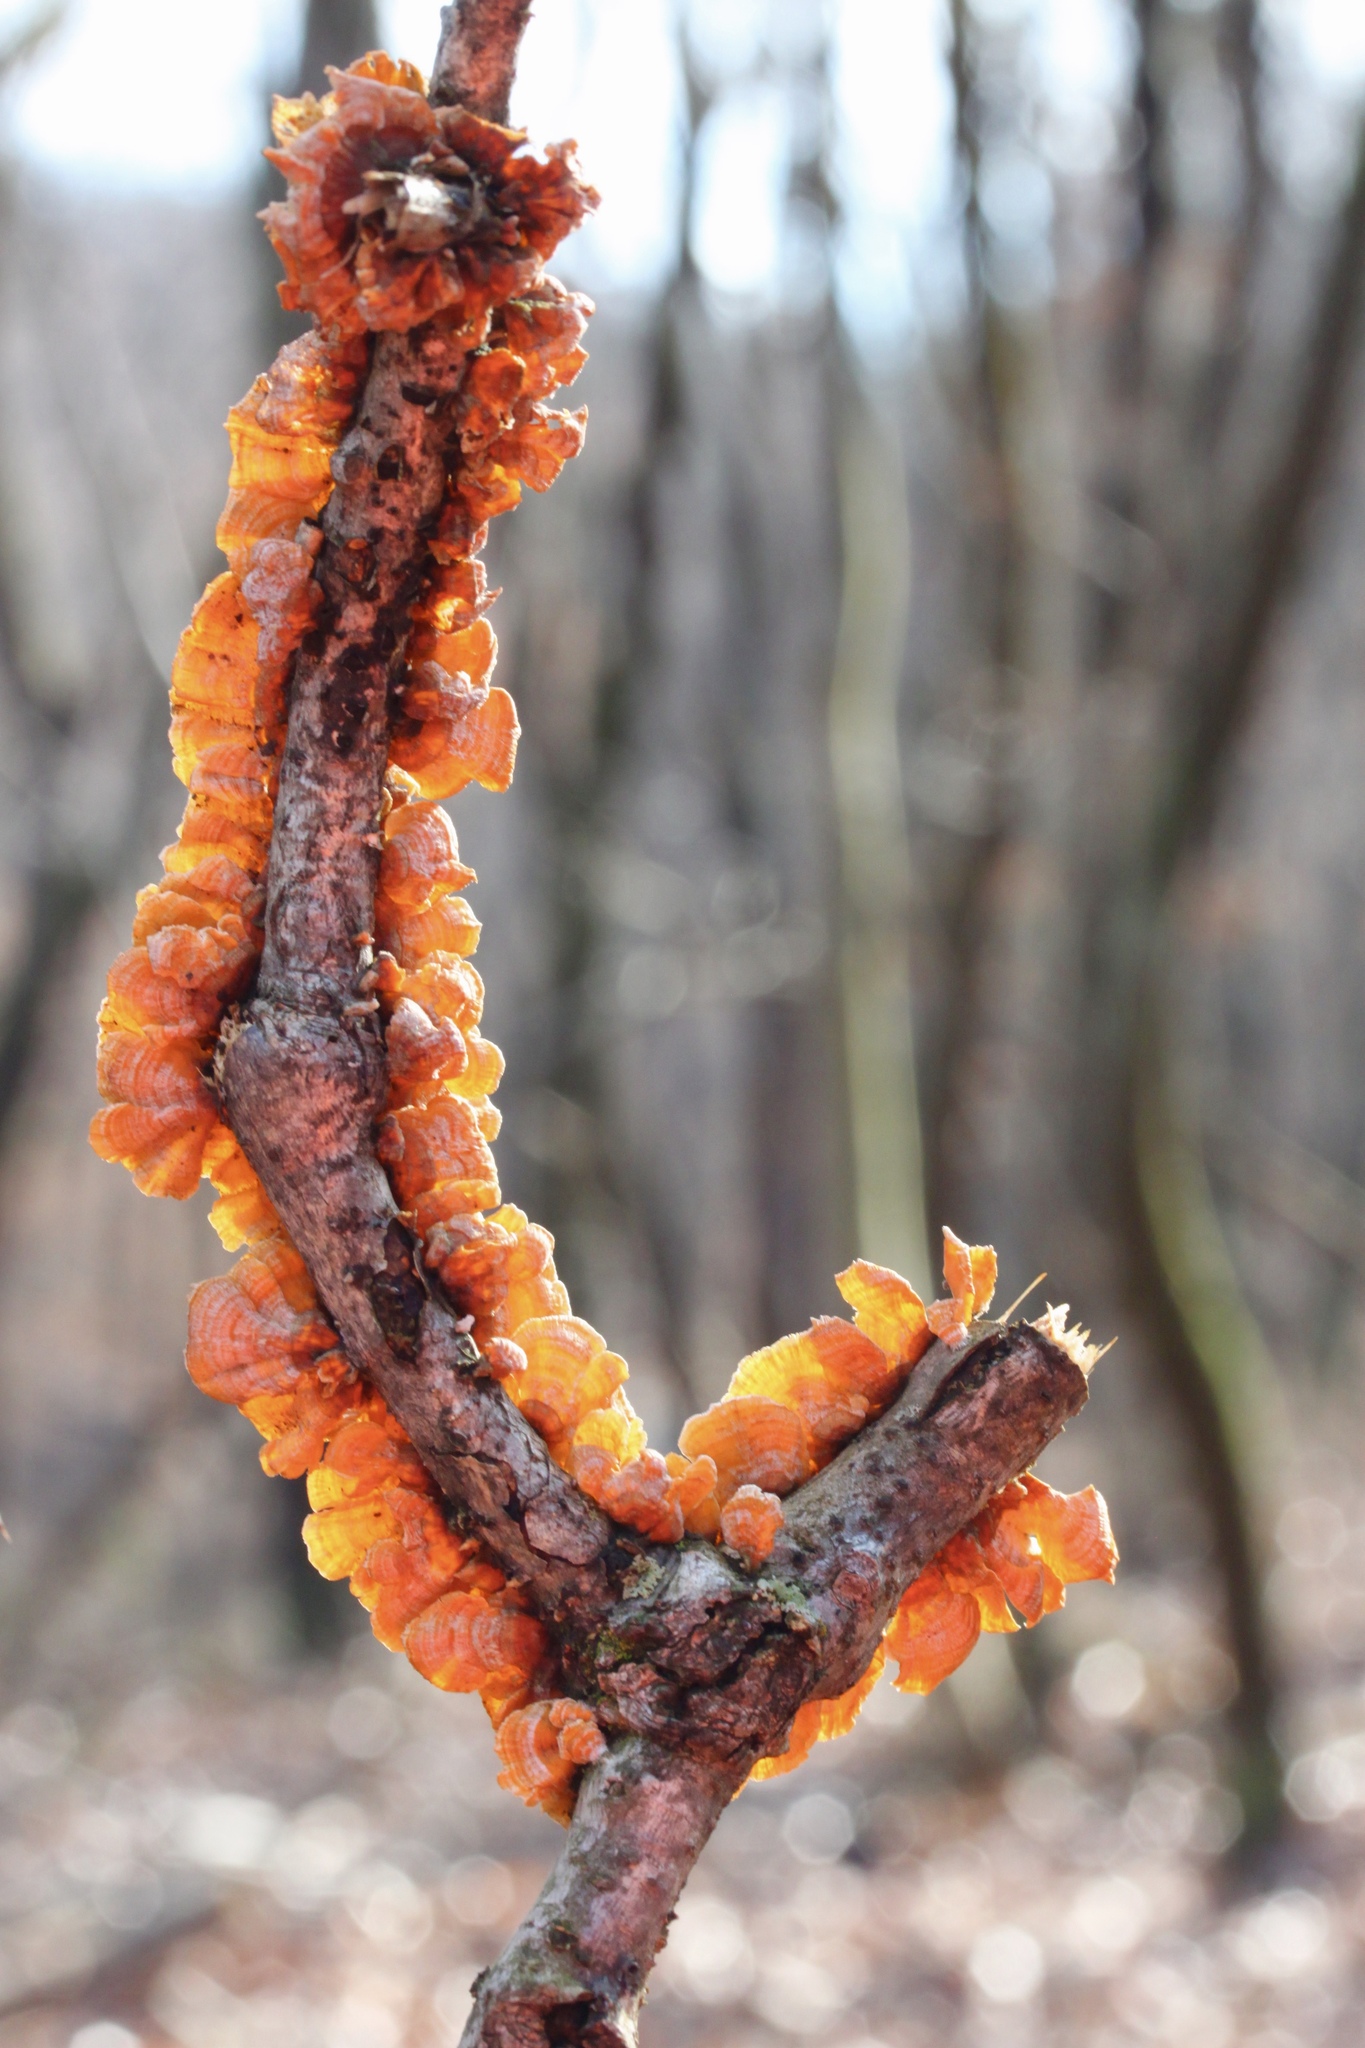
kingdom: Fungi
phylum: Basidiomycota
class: Agaricomycetes
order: Russulales
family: Stereaceae
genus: Stereum
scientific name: Stereum complicatum
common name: Crowded parchment
